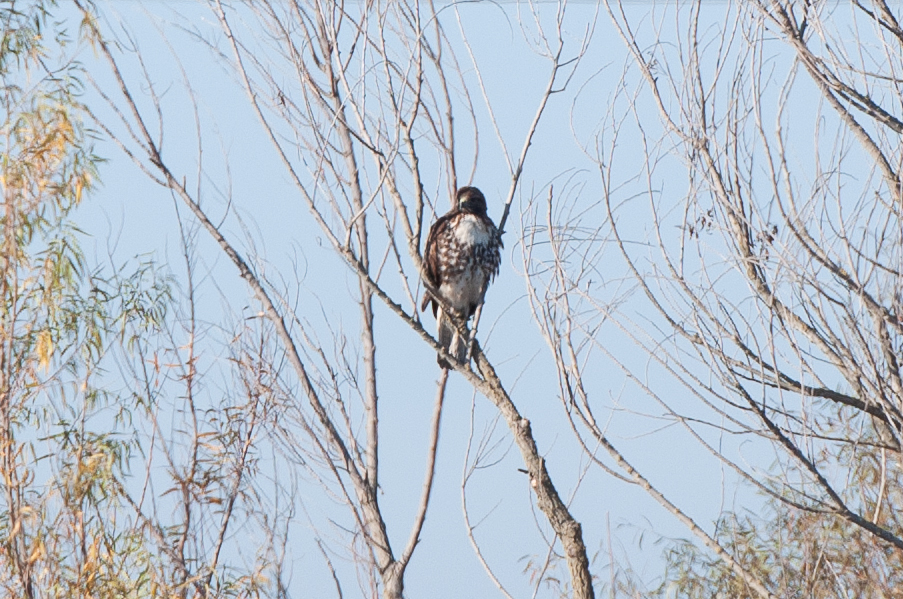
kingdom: Animalia
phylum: Chordata
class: Aves
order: Accipitriformes
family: Accipitridae
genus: Buteo
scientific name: Buteo jamaicensis
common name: Red-tailed hawk
